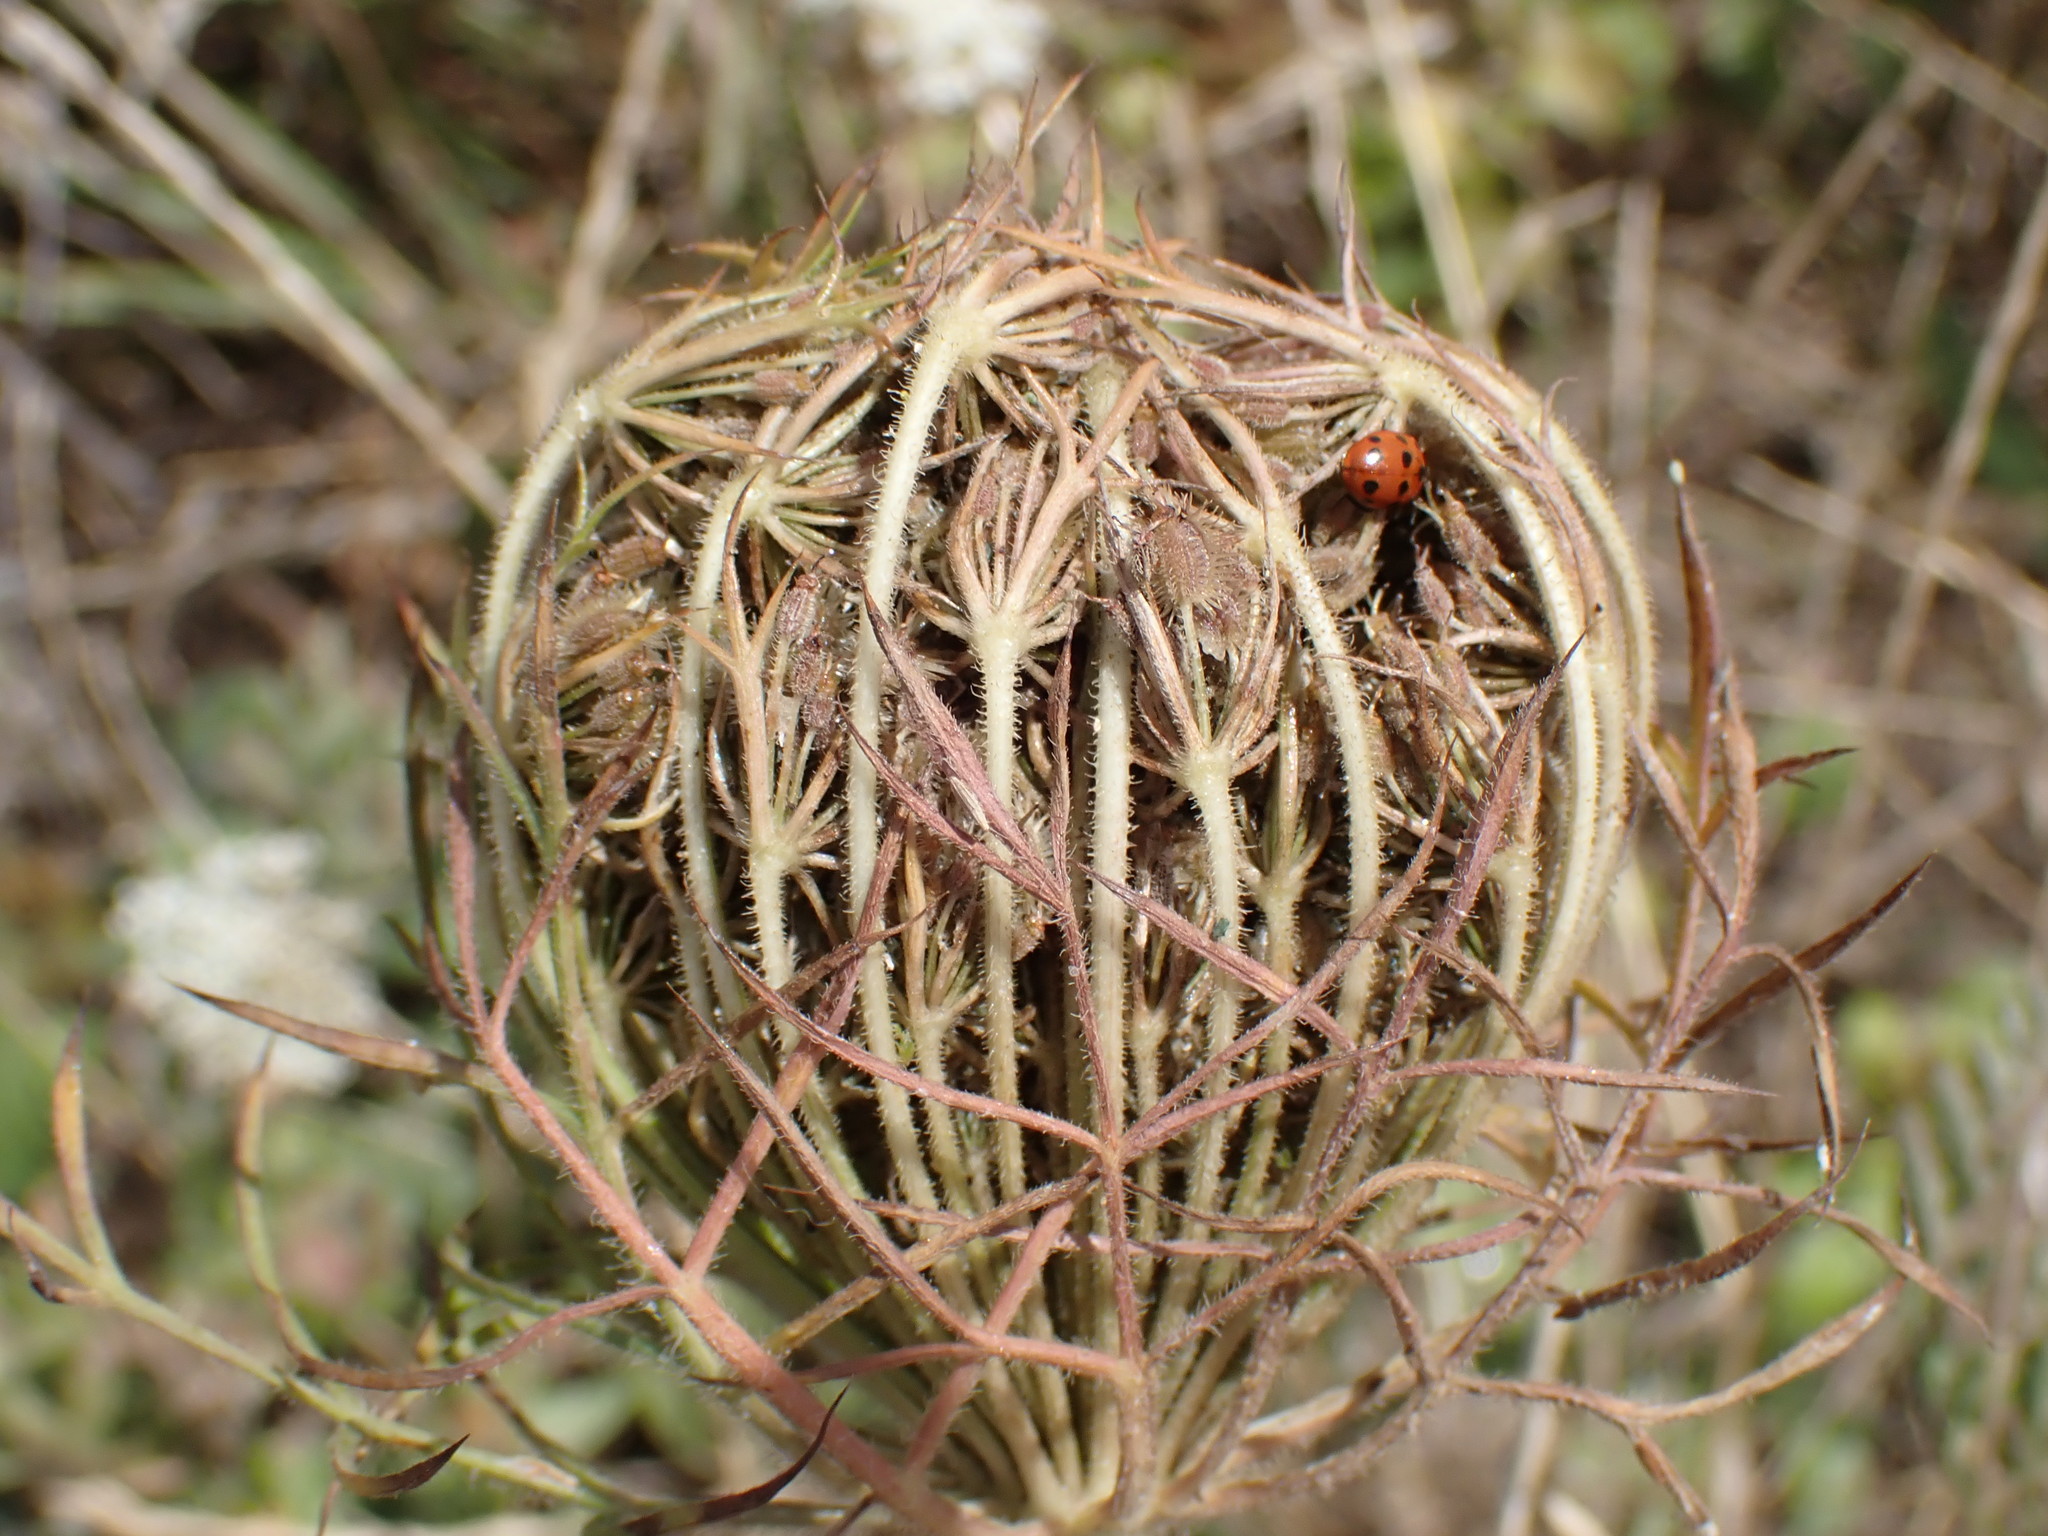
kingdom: Plantae
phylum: Tracheophyta
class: Magnoliopsida
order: Apiales
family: Apiaceae
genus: Daucus
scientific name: Daucus carota
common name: Wild carrot
